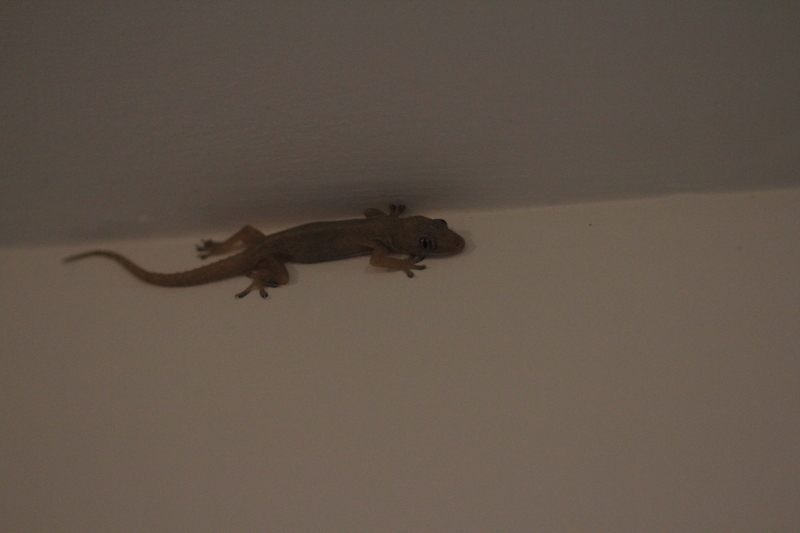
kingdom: Animalia
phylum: Chordata
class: Squamata
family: Gekkonidae
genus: Hemidactylus
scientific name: Hemidactylus frenatus
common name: Common house gecko
